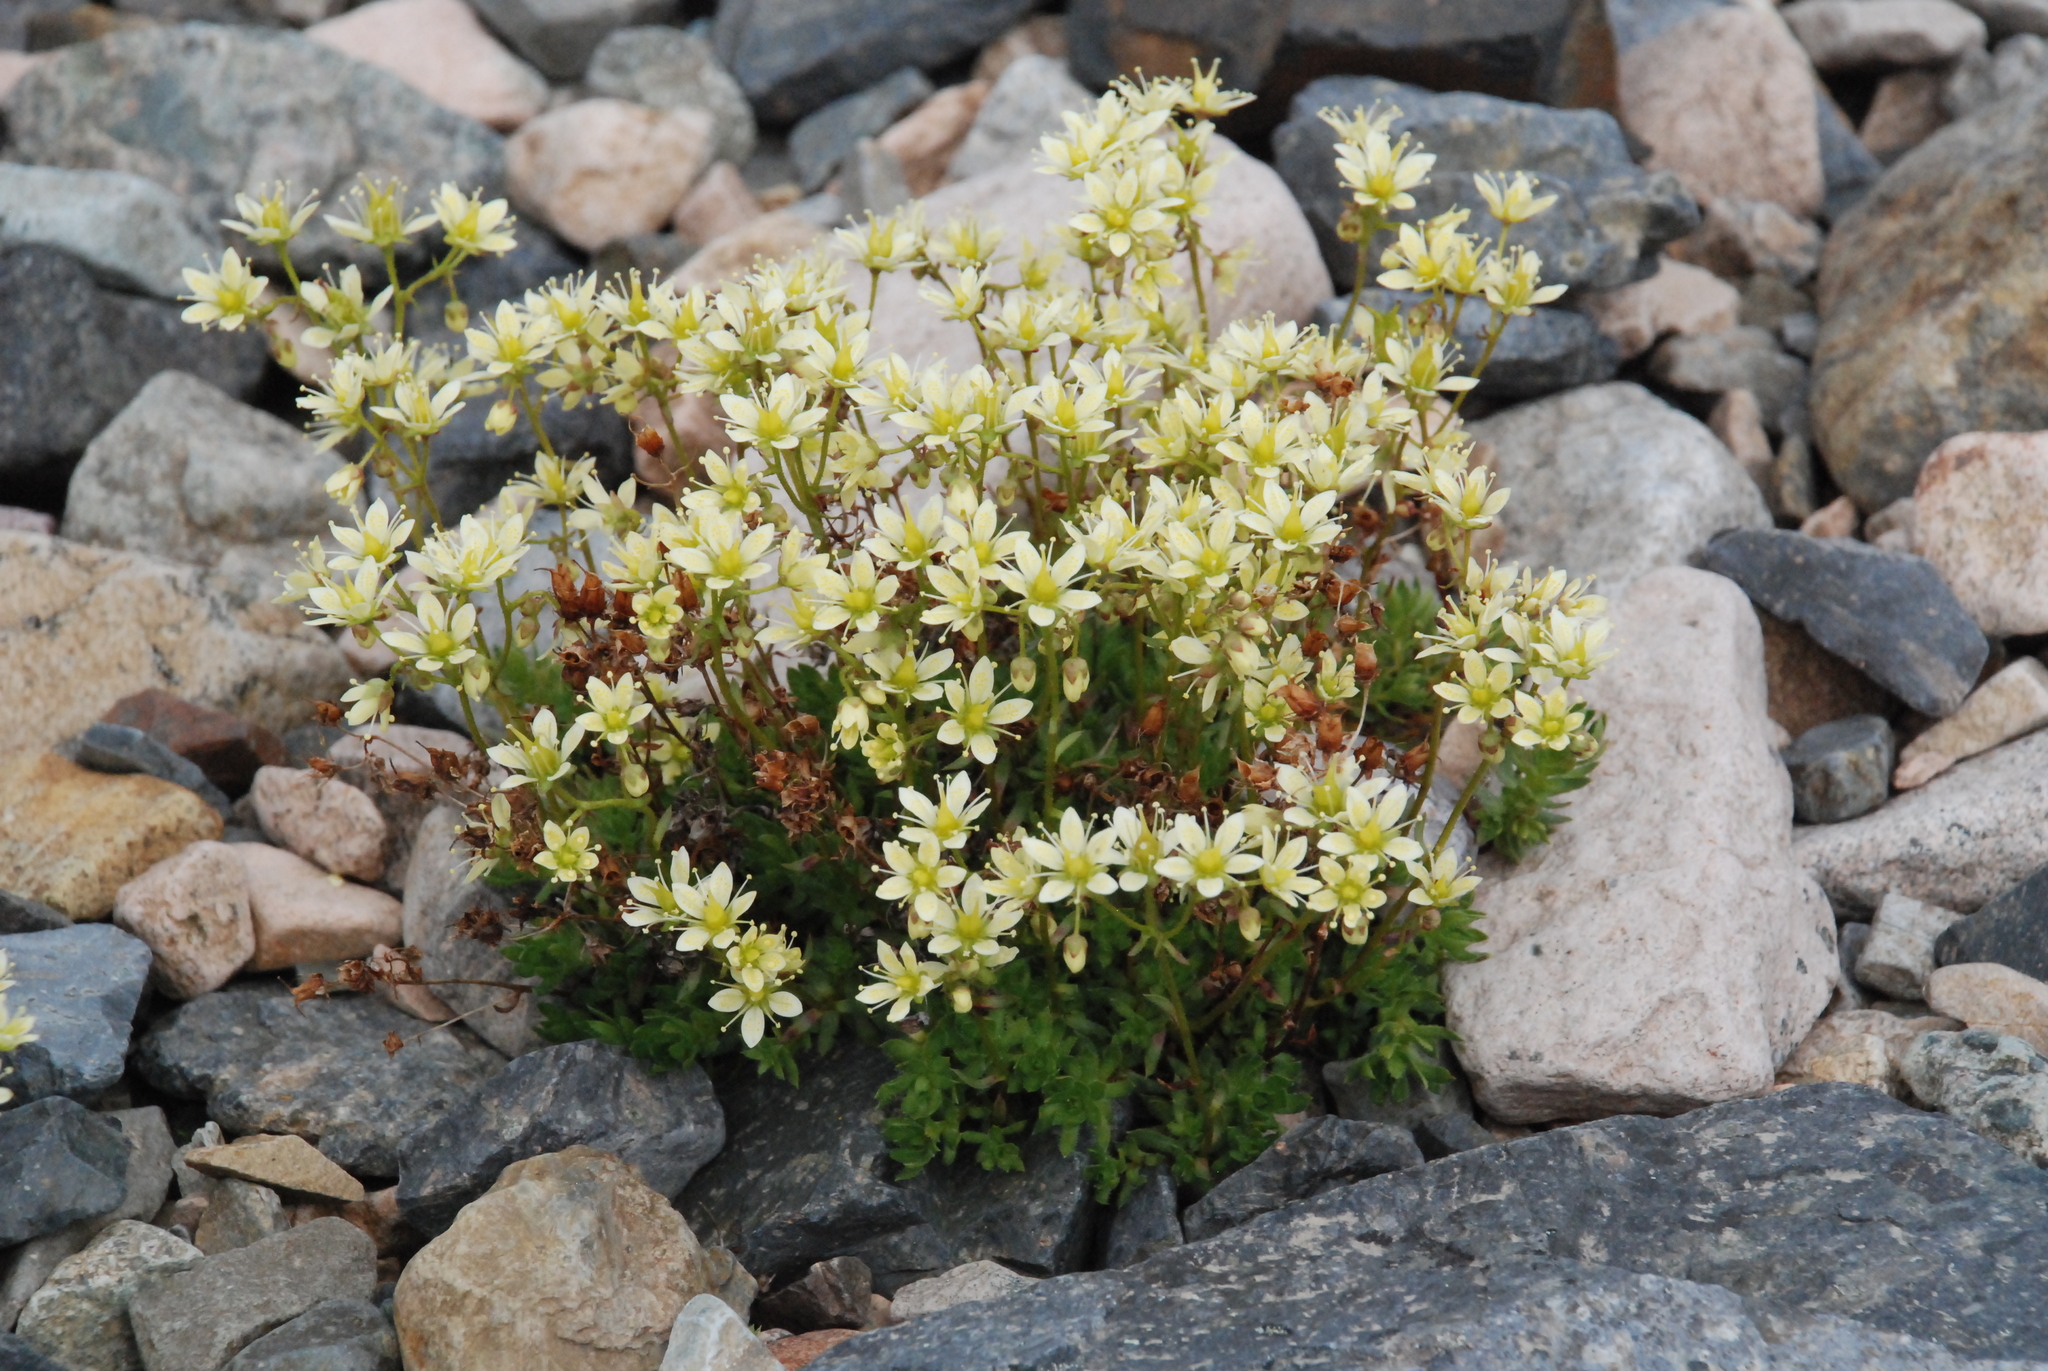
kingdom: Plantae
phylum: Tracheophyta
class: Magnoliopsida
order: Saxifragales
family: Saxifragaceae
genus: Saxifraga
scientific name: Saxifraga bronchialis
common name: Matted saxifrage
